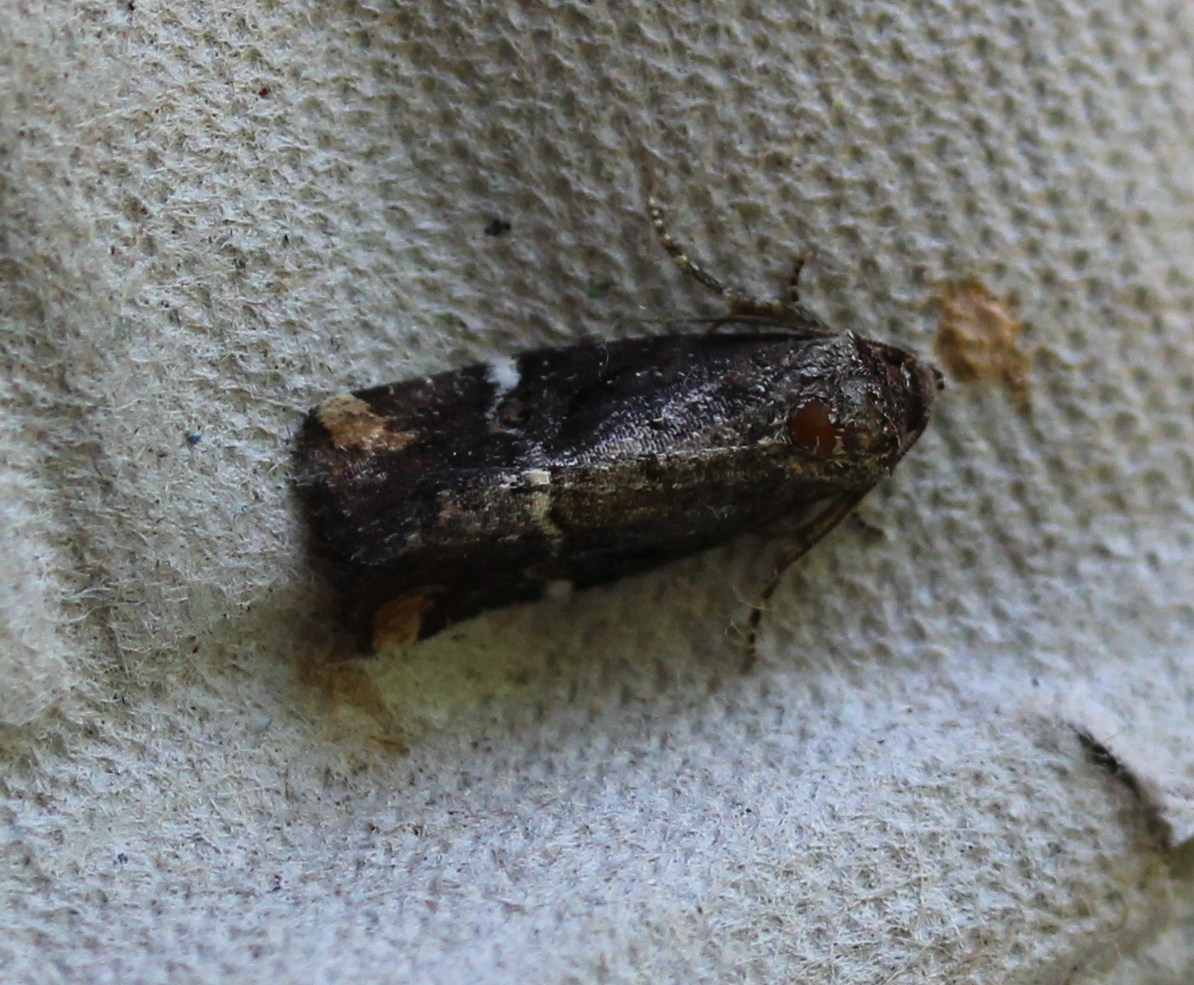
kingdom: Animalia
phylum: Arthropoda
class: Insecta
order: Lepidoptera
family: Noctuidae
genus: Elaphria
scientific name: Elaphria versicolor
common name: Fir harlequin
